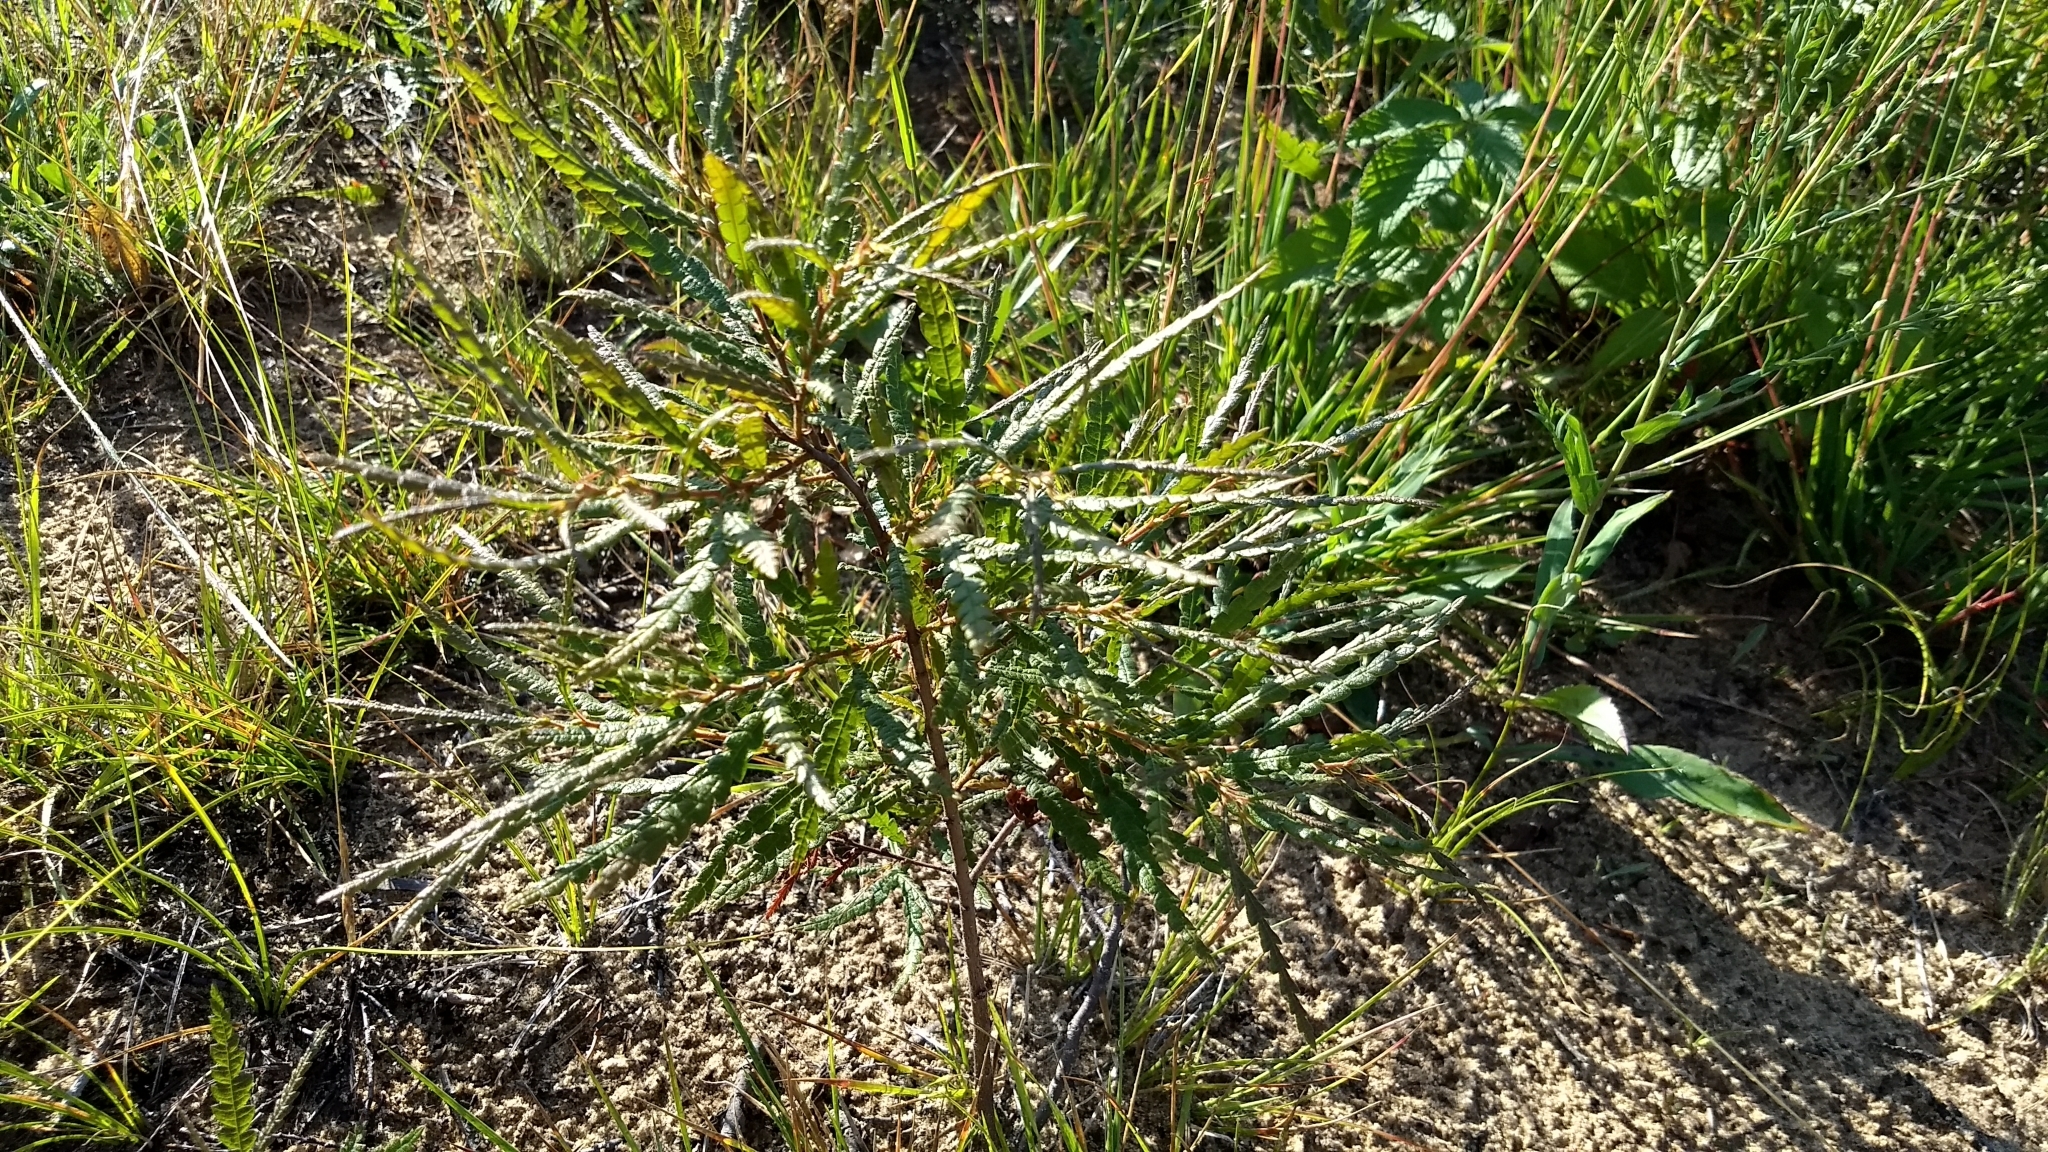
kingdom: Plantae
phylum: Tracheophyta
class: Magnoliopsida
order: Fagales
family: Myricaceae
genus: Comptonia
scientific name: Comptonia peregrina
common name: Sweet-fern
